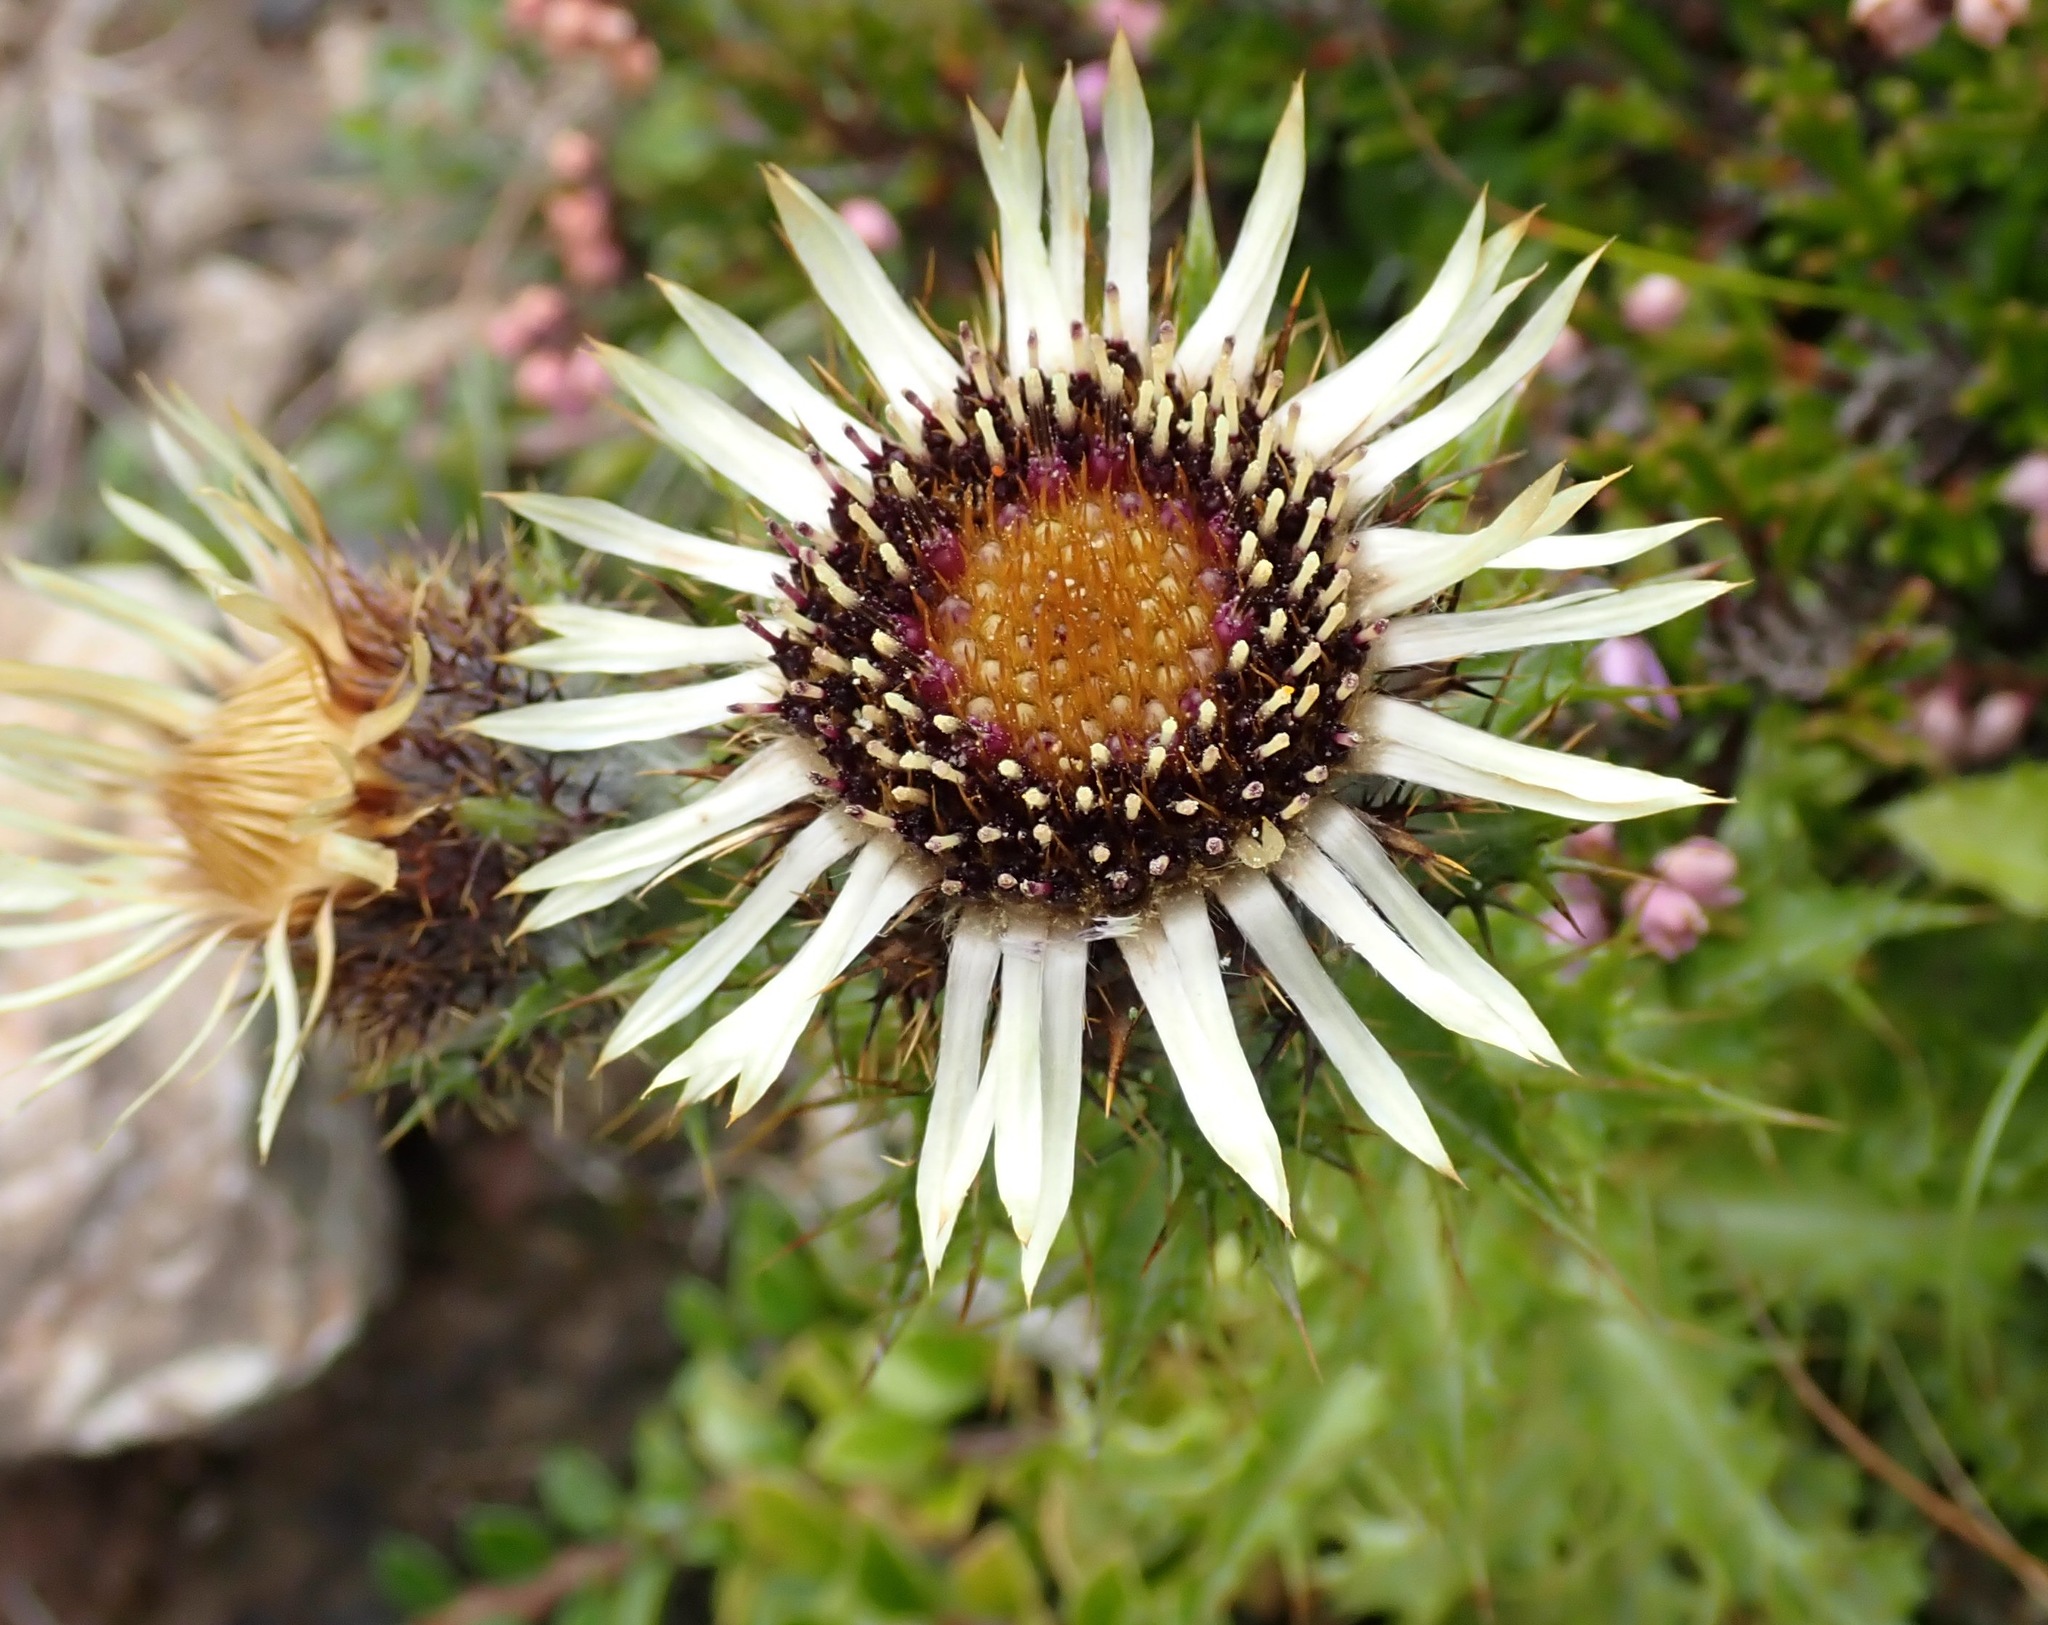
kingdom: Plantae
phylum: Tracheophyta
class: Magnoliopsida
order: Asterales
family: Asteraceae
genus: Carlina
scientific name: Carlina vulgaris
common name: Carline thistle
